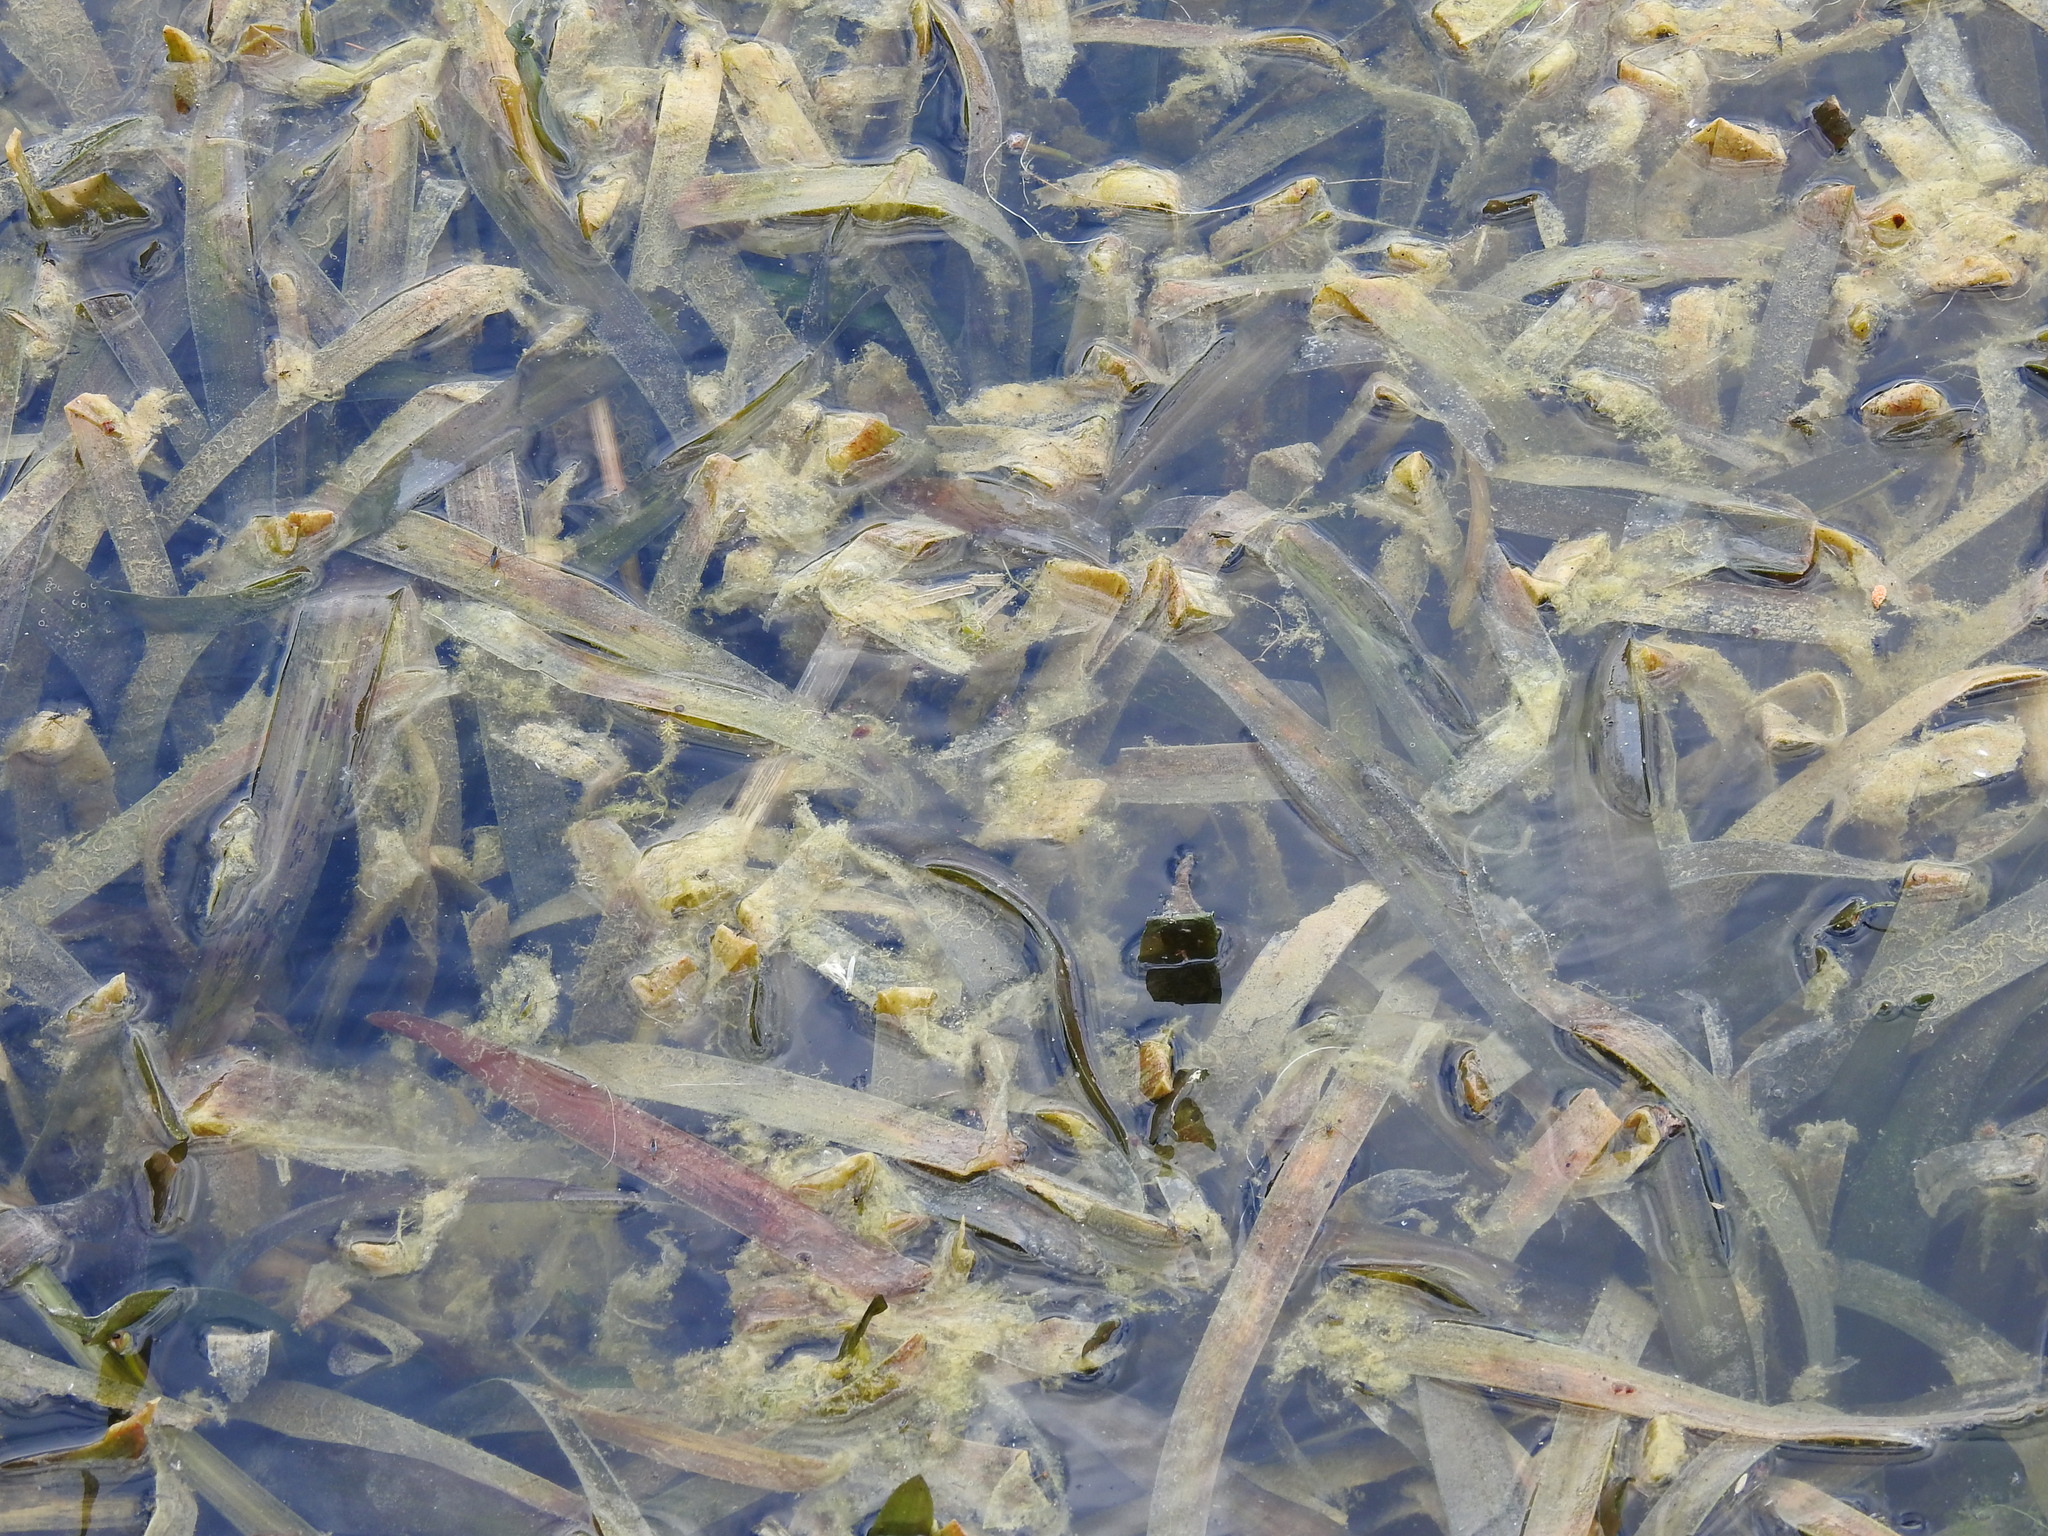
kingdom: Plantae
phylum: Tracheophyta
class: Liliopsida
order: Alismatales
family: Hydrocharitaceae
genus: Stratiotes
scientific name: Stratiotes aloides
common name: Water-soldier
